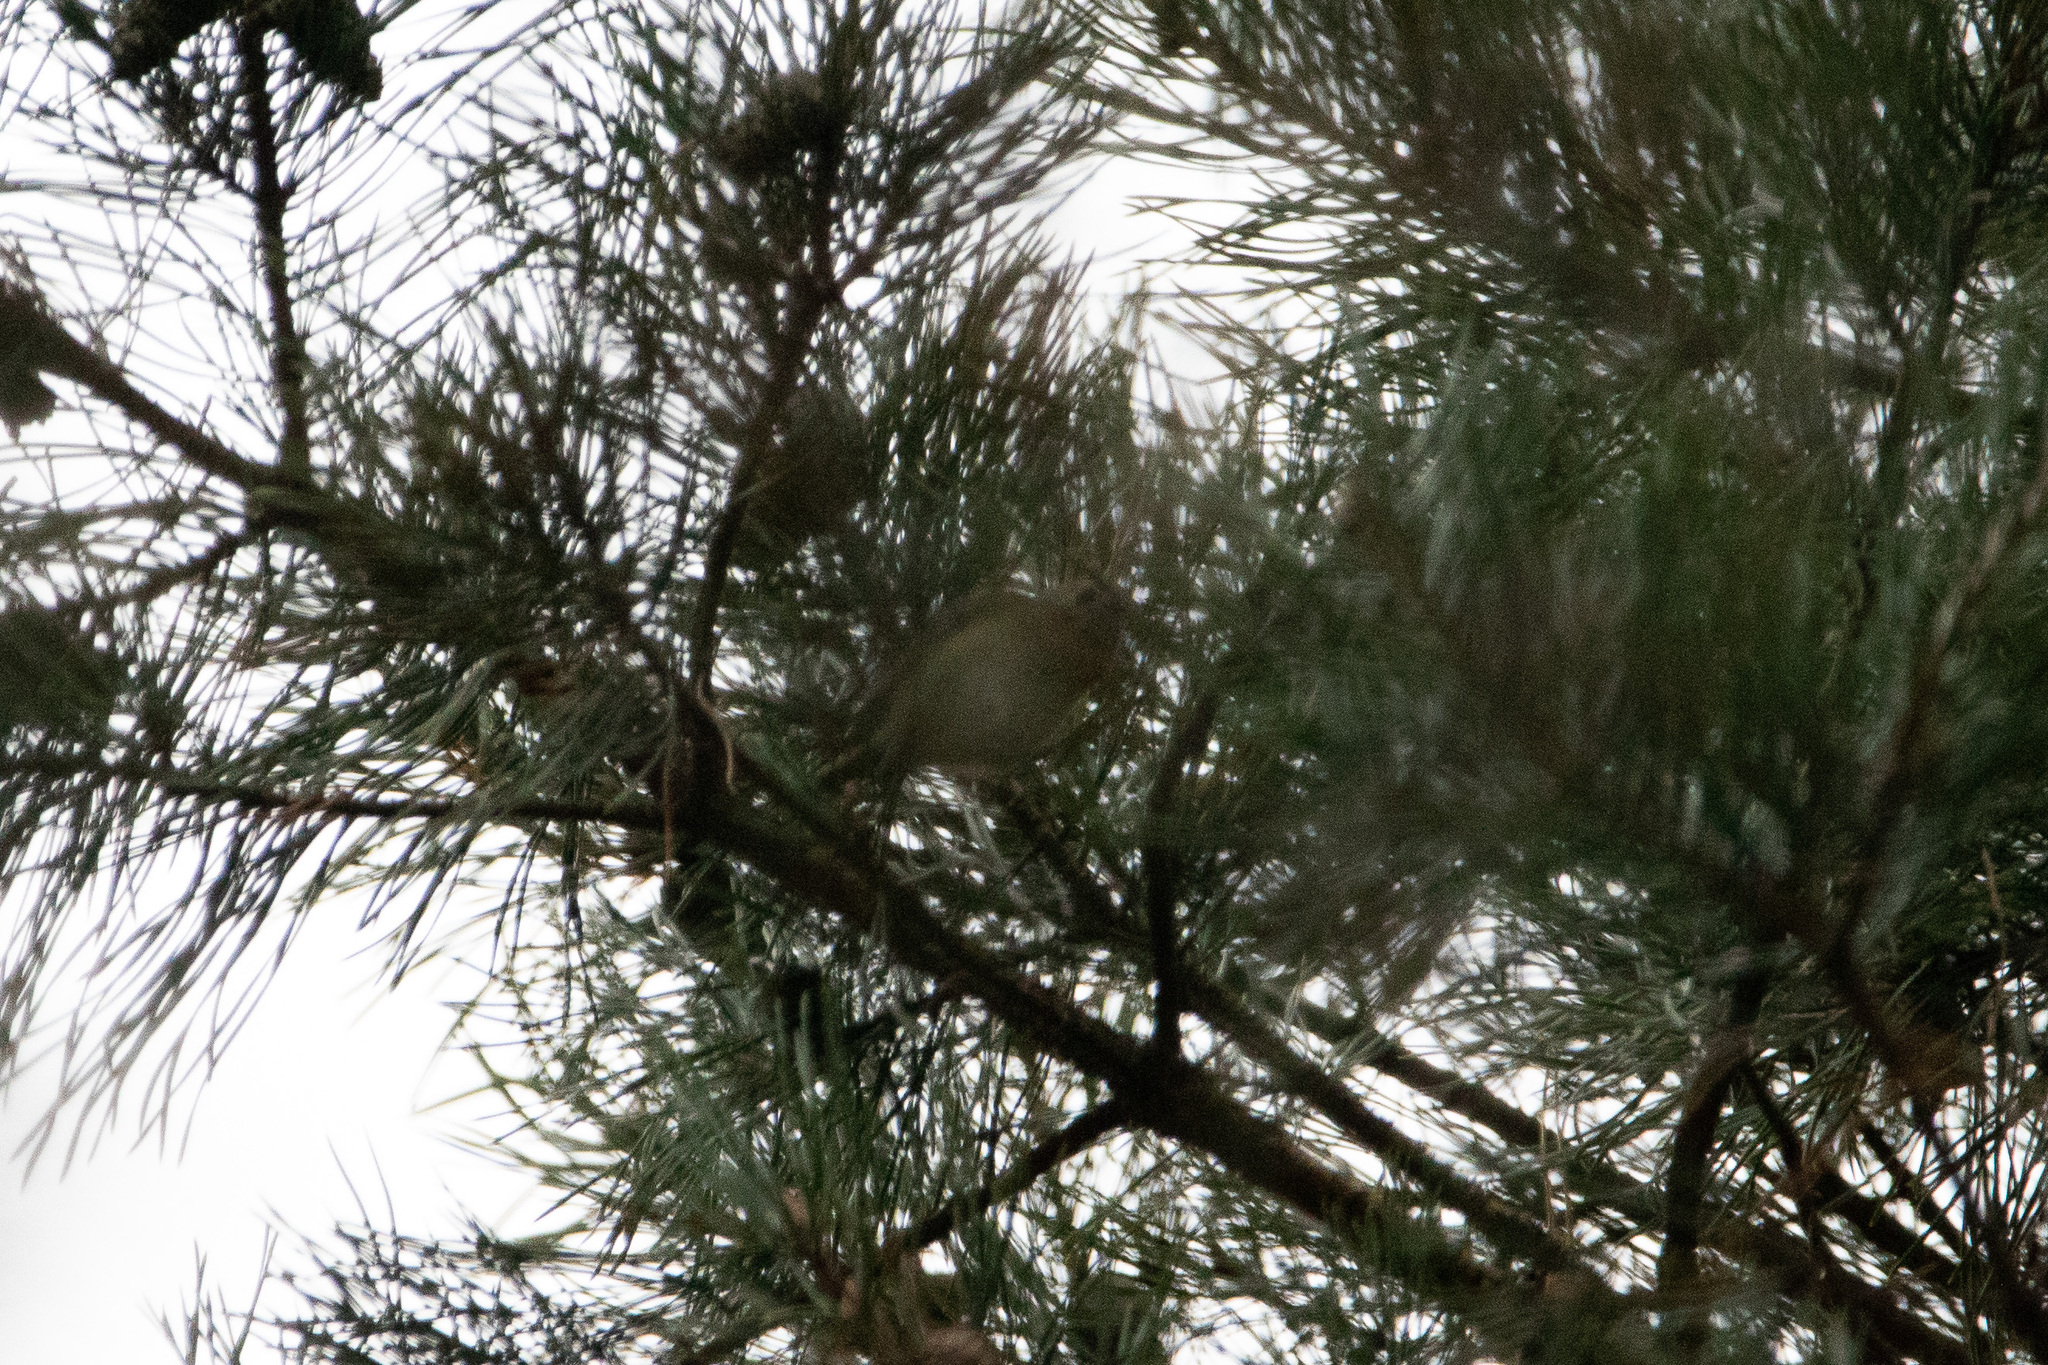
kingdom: Animalia
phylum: Chordata
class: Aves
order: Passeriformes
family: Regulidae
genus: Regulus
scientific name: Regulus regulus
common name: Goldcrest
